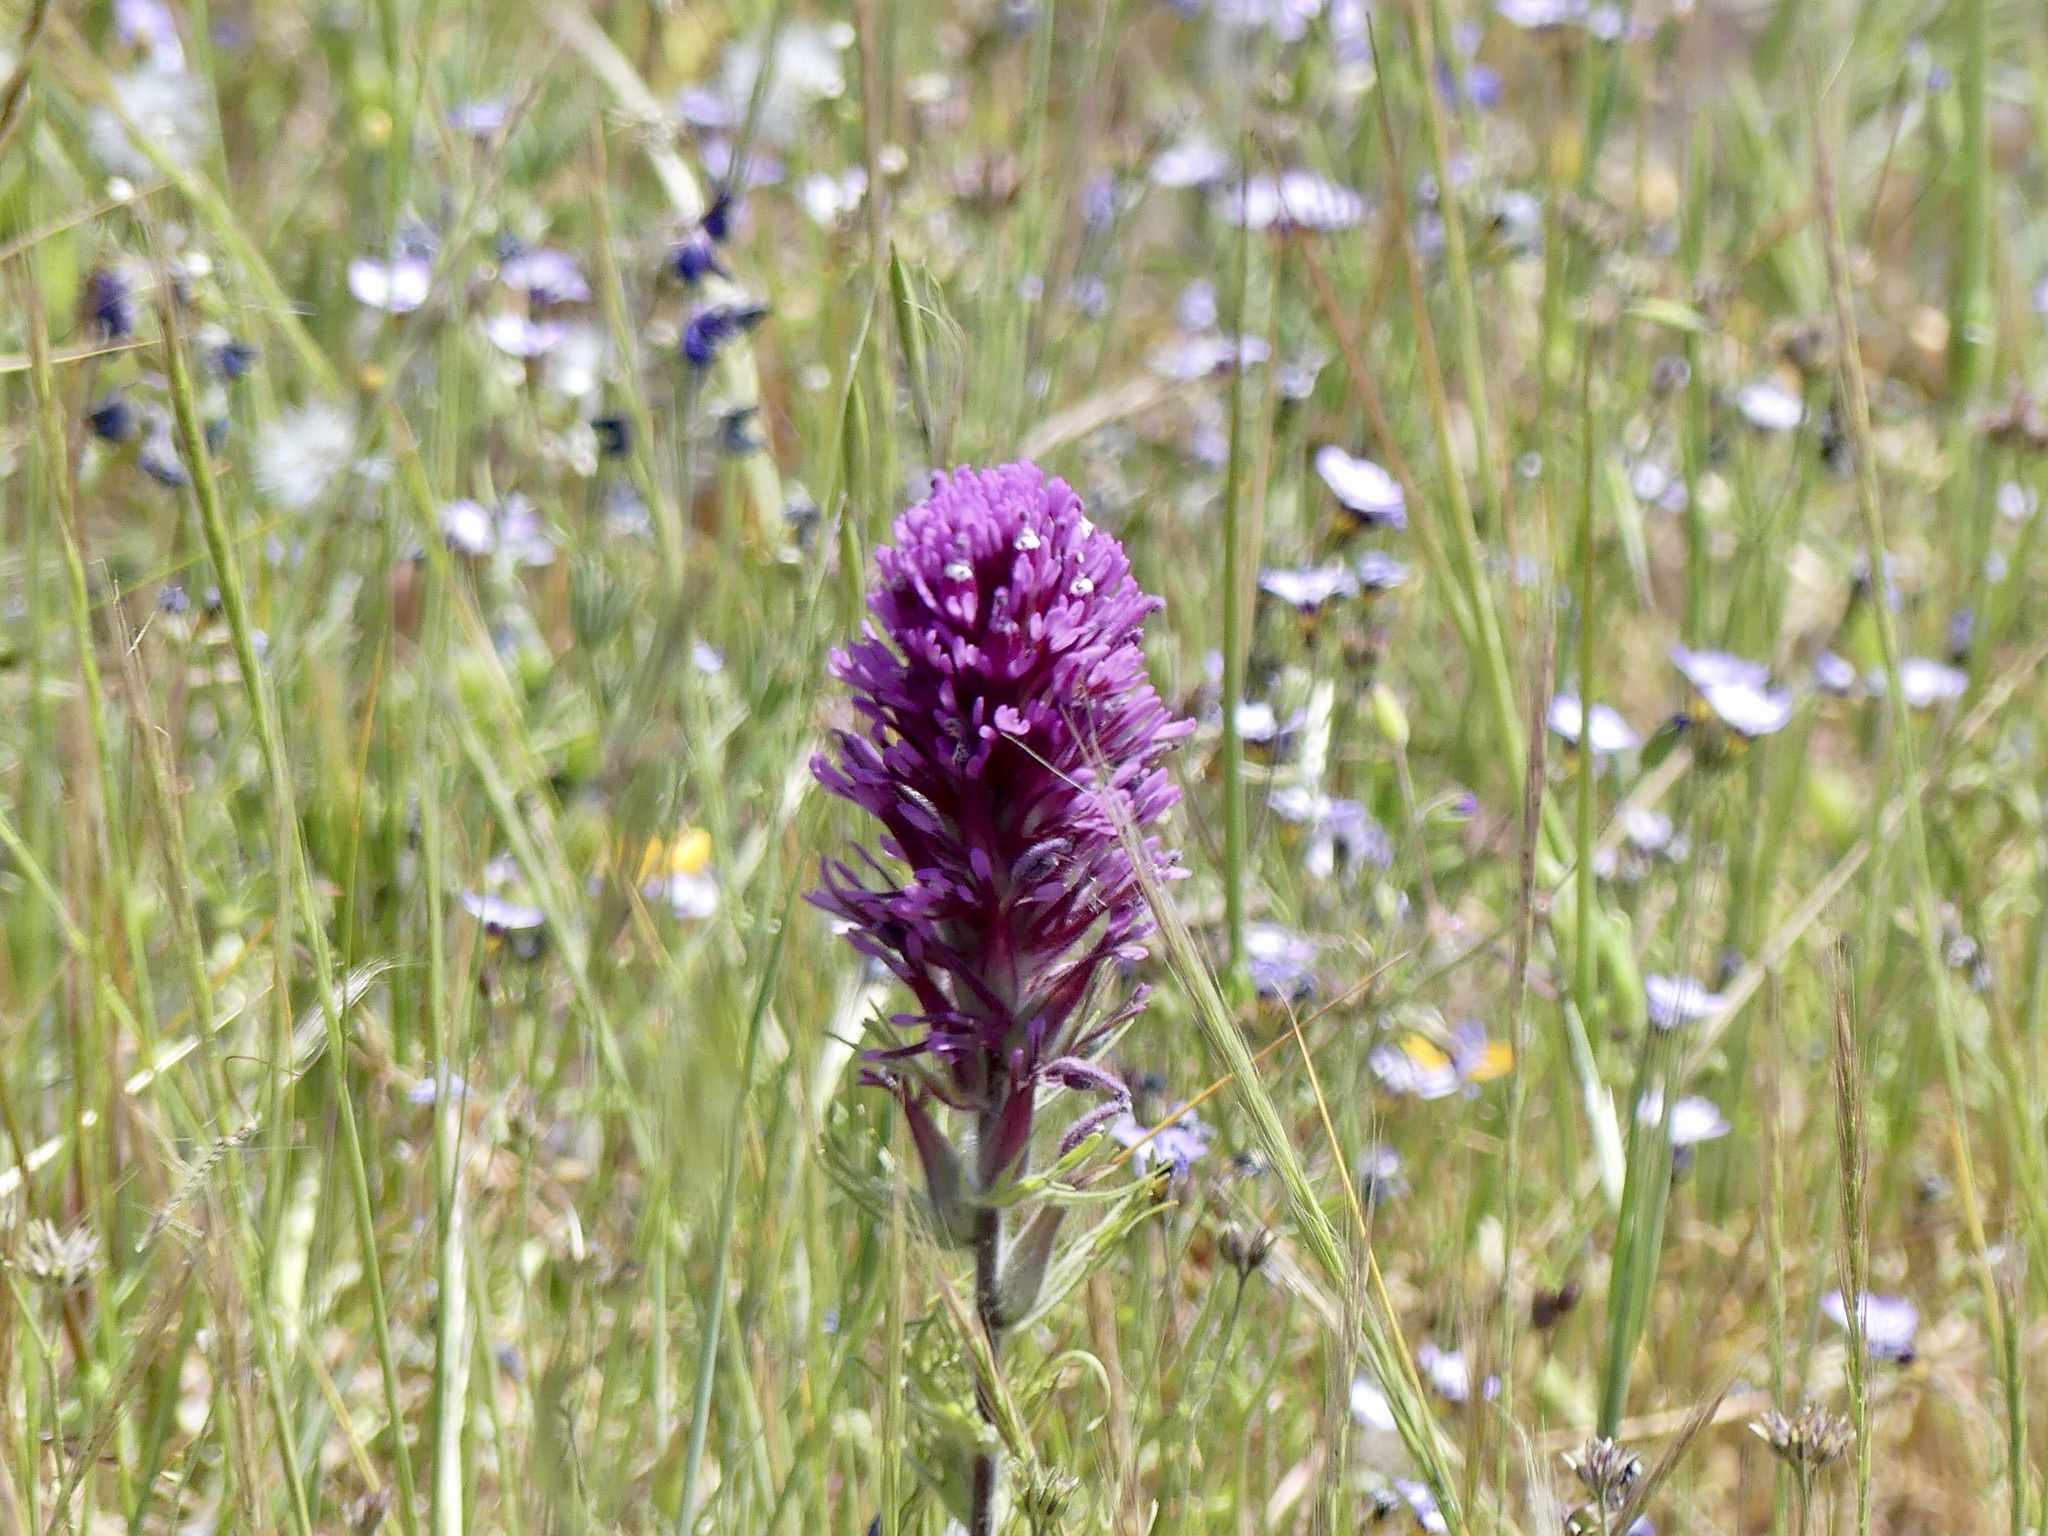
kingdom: Plantae
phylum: Tracheophyta
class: Magnoliopsida
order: Lamiales
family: Orobanchaceae
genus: Castilleja
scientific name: Castilleja exserta
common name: Purple owl-clover
